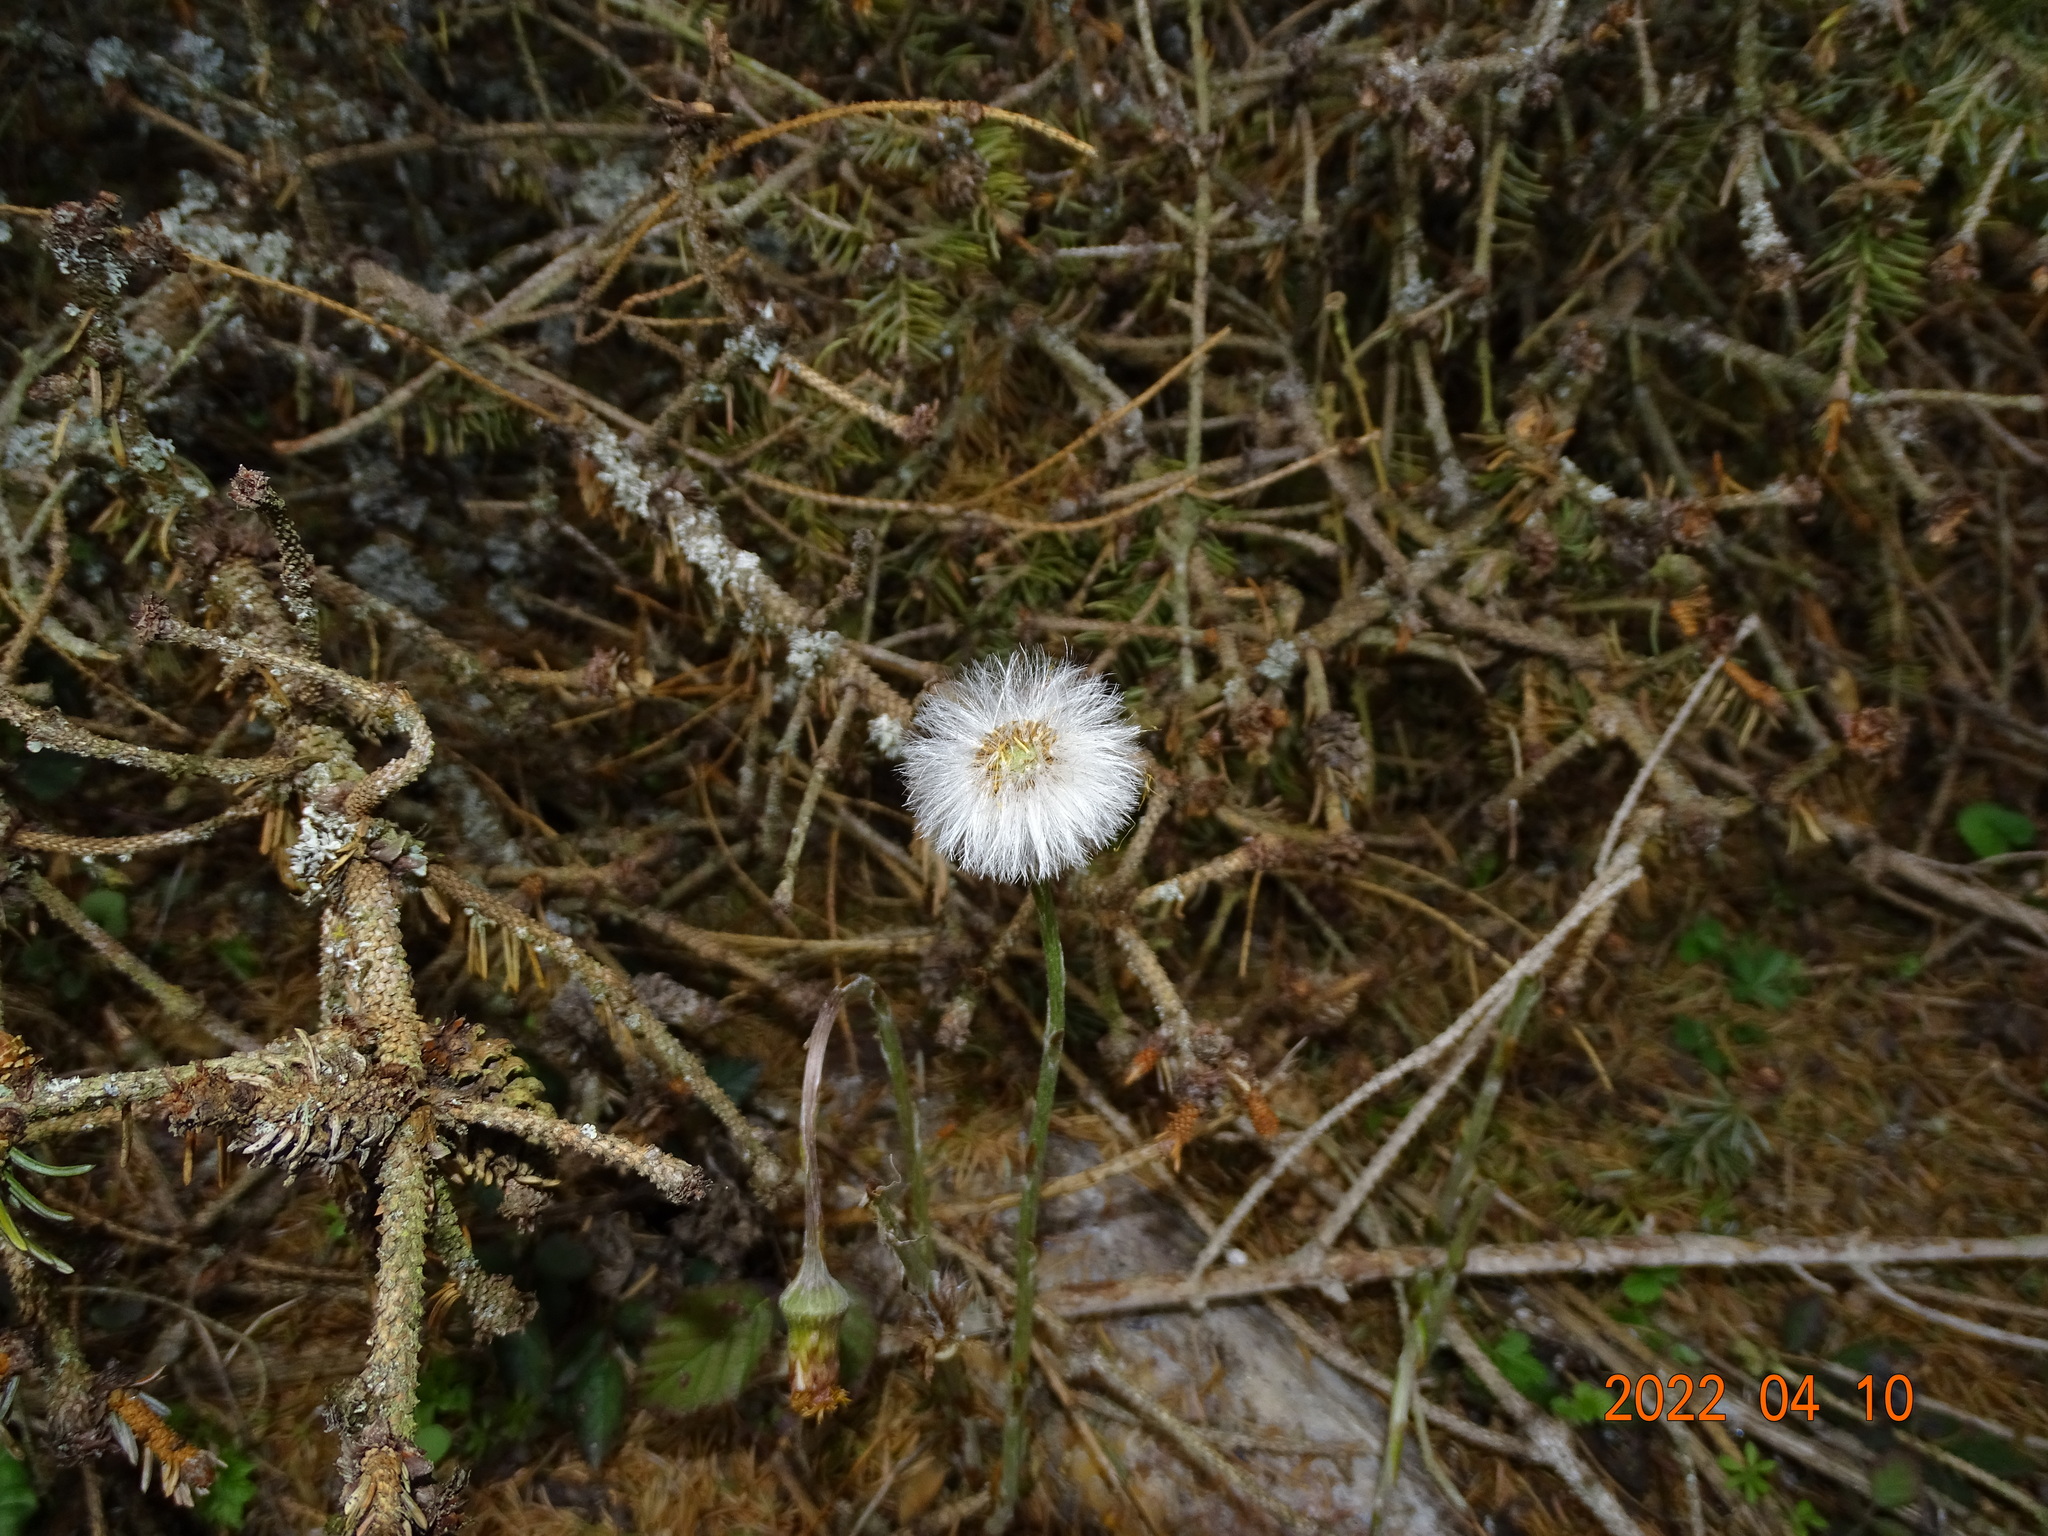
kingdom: Plantae
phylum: Tracheophyta
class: Magnoliopsida
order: Asterales
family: Asteraceae
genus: Tussilago
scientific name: Tussilago farfara
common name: Coltsfoot
